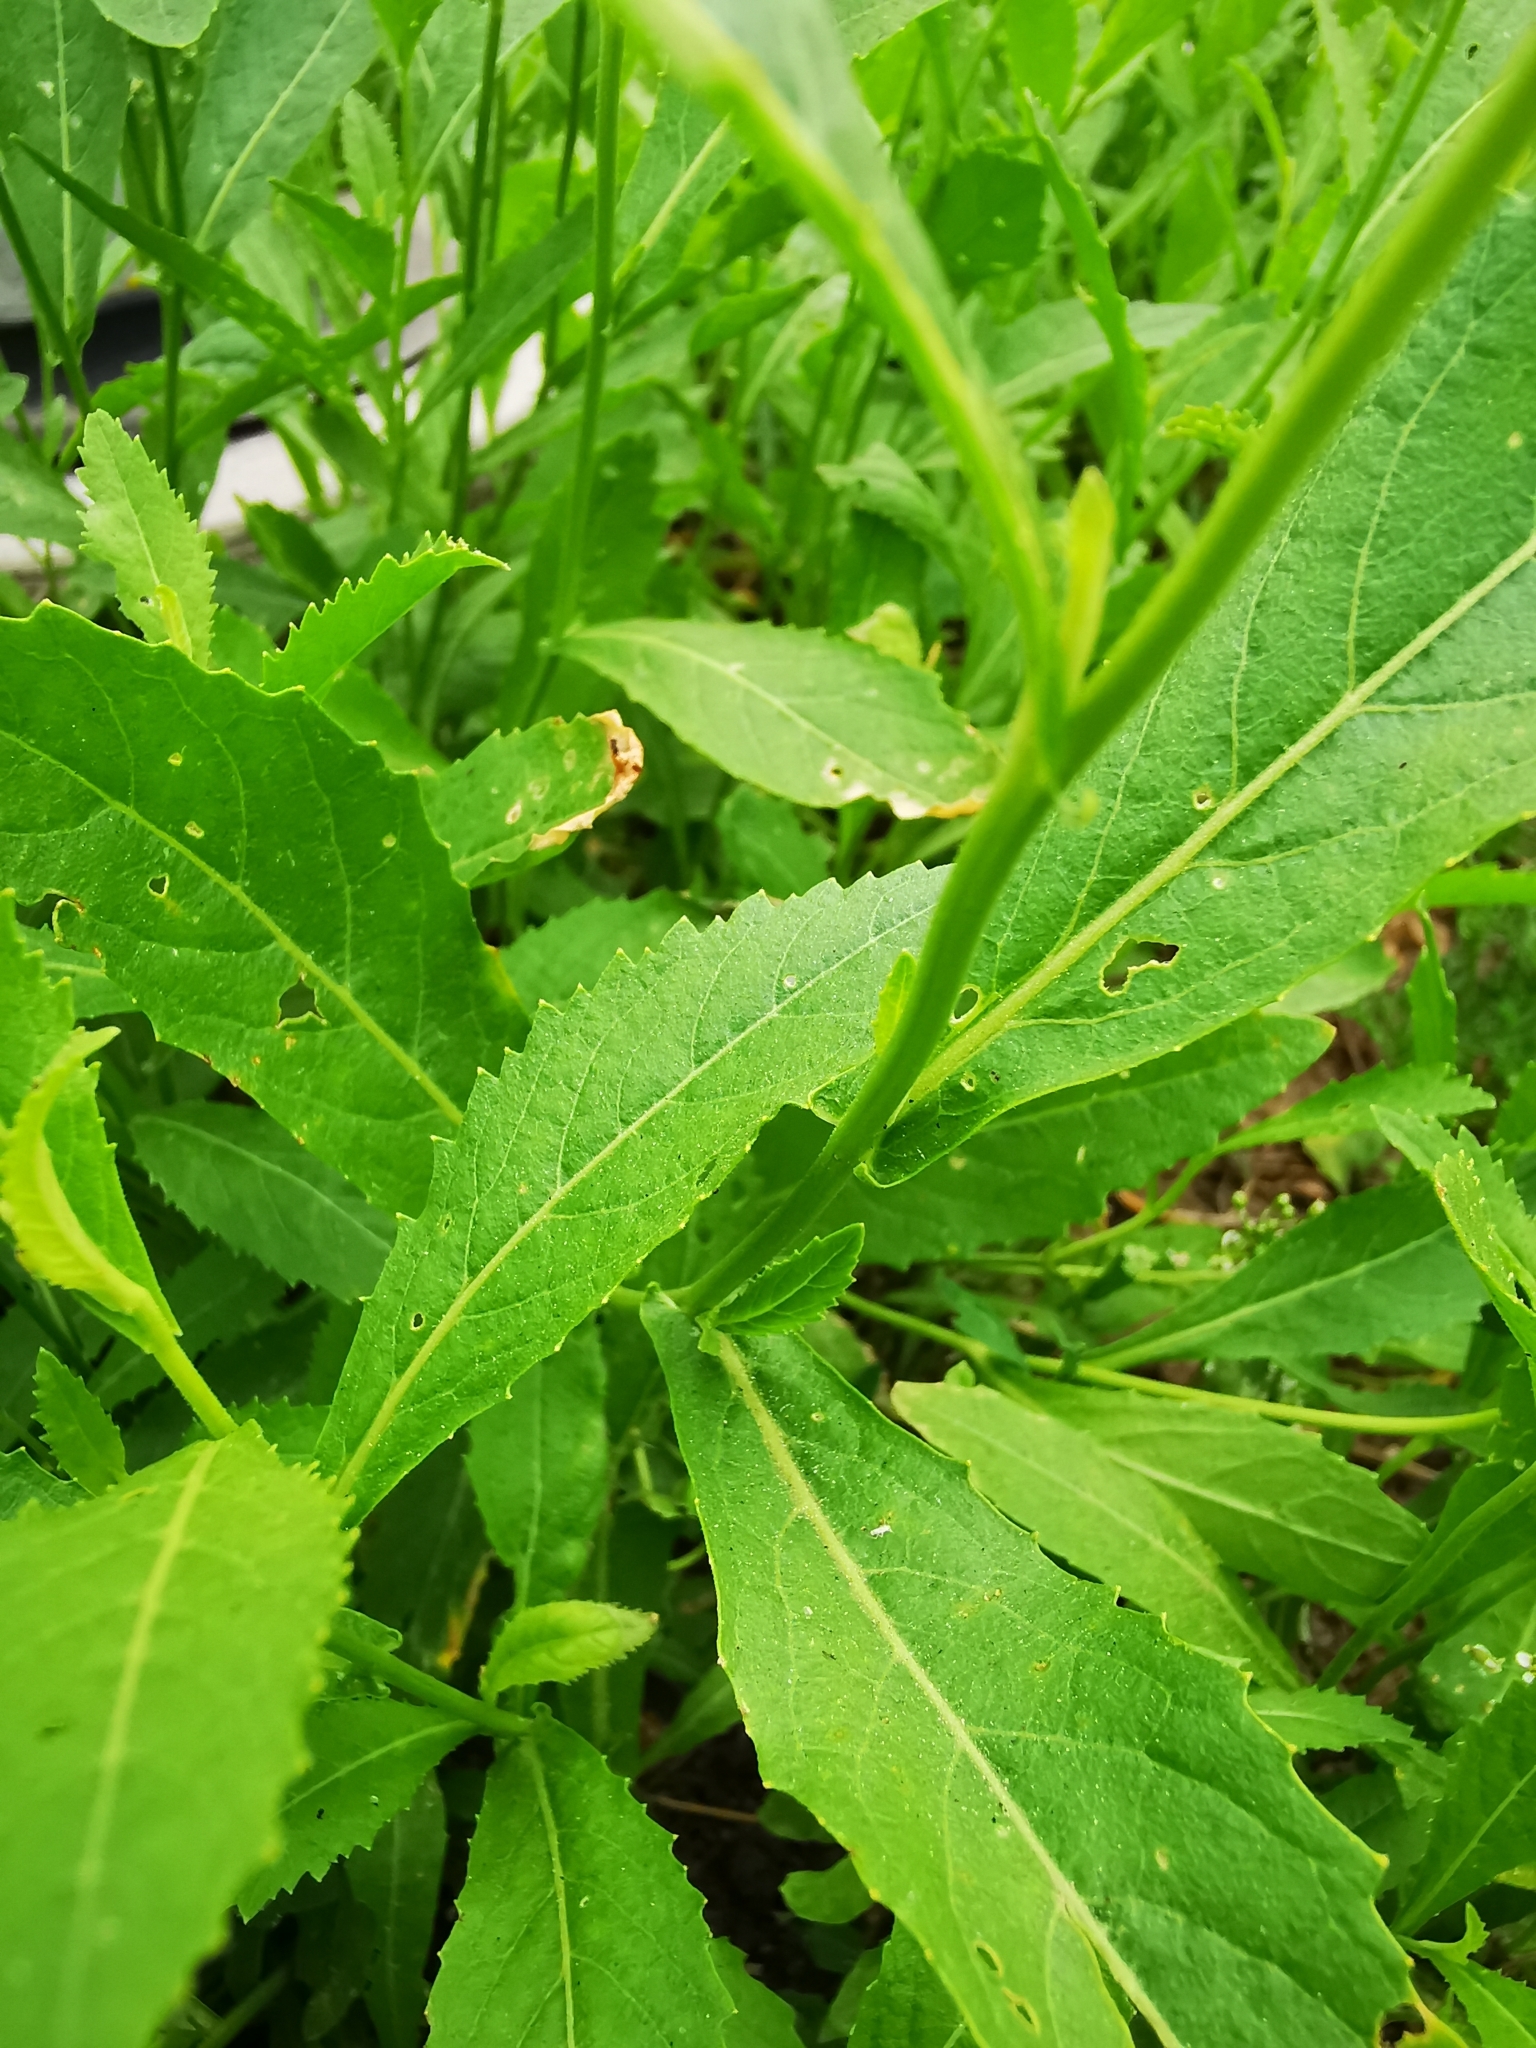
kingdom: Plantae
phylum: Tracheophyta
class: Magnoliopsida
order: Brassicales
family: Brassicaceae
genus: Rorippa
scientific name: Rorippa austriaca
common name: Austrian yellow-cress
